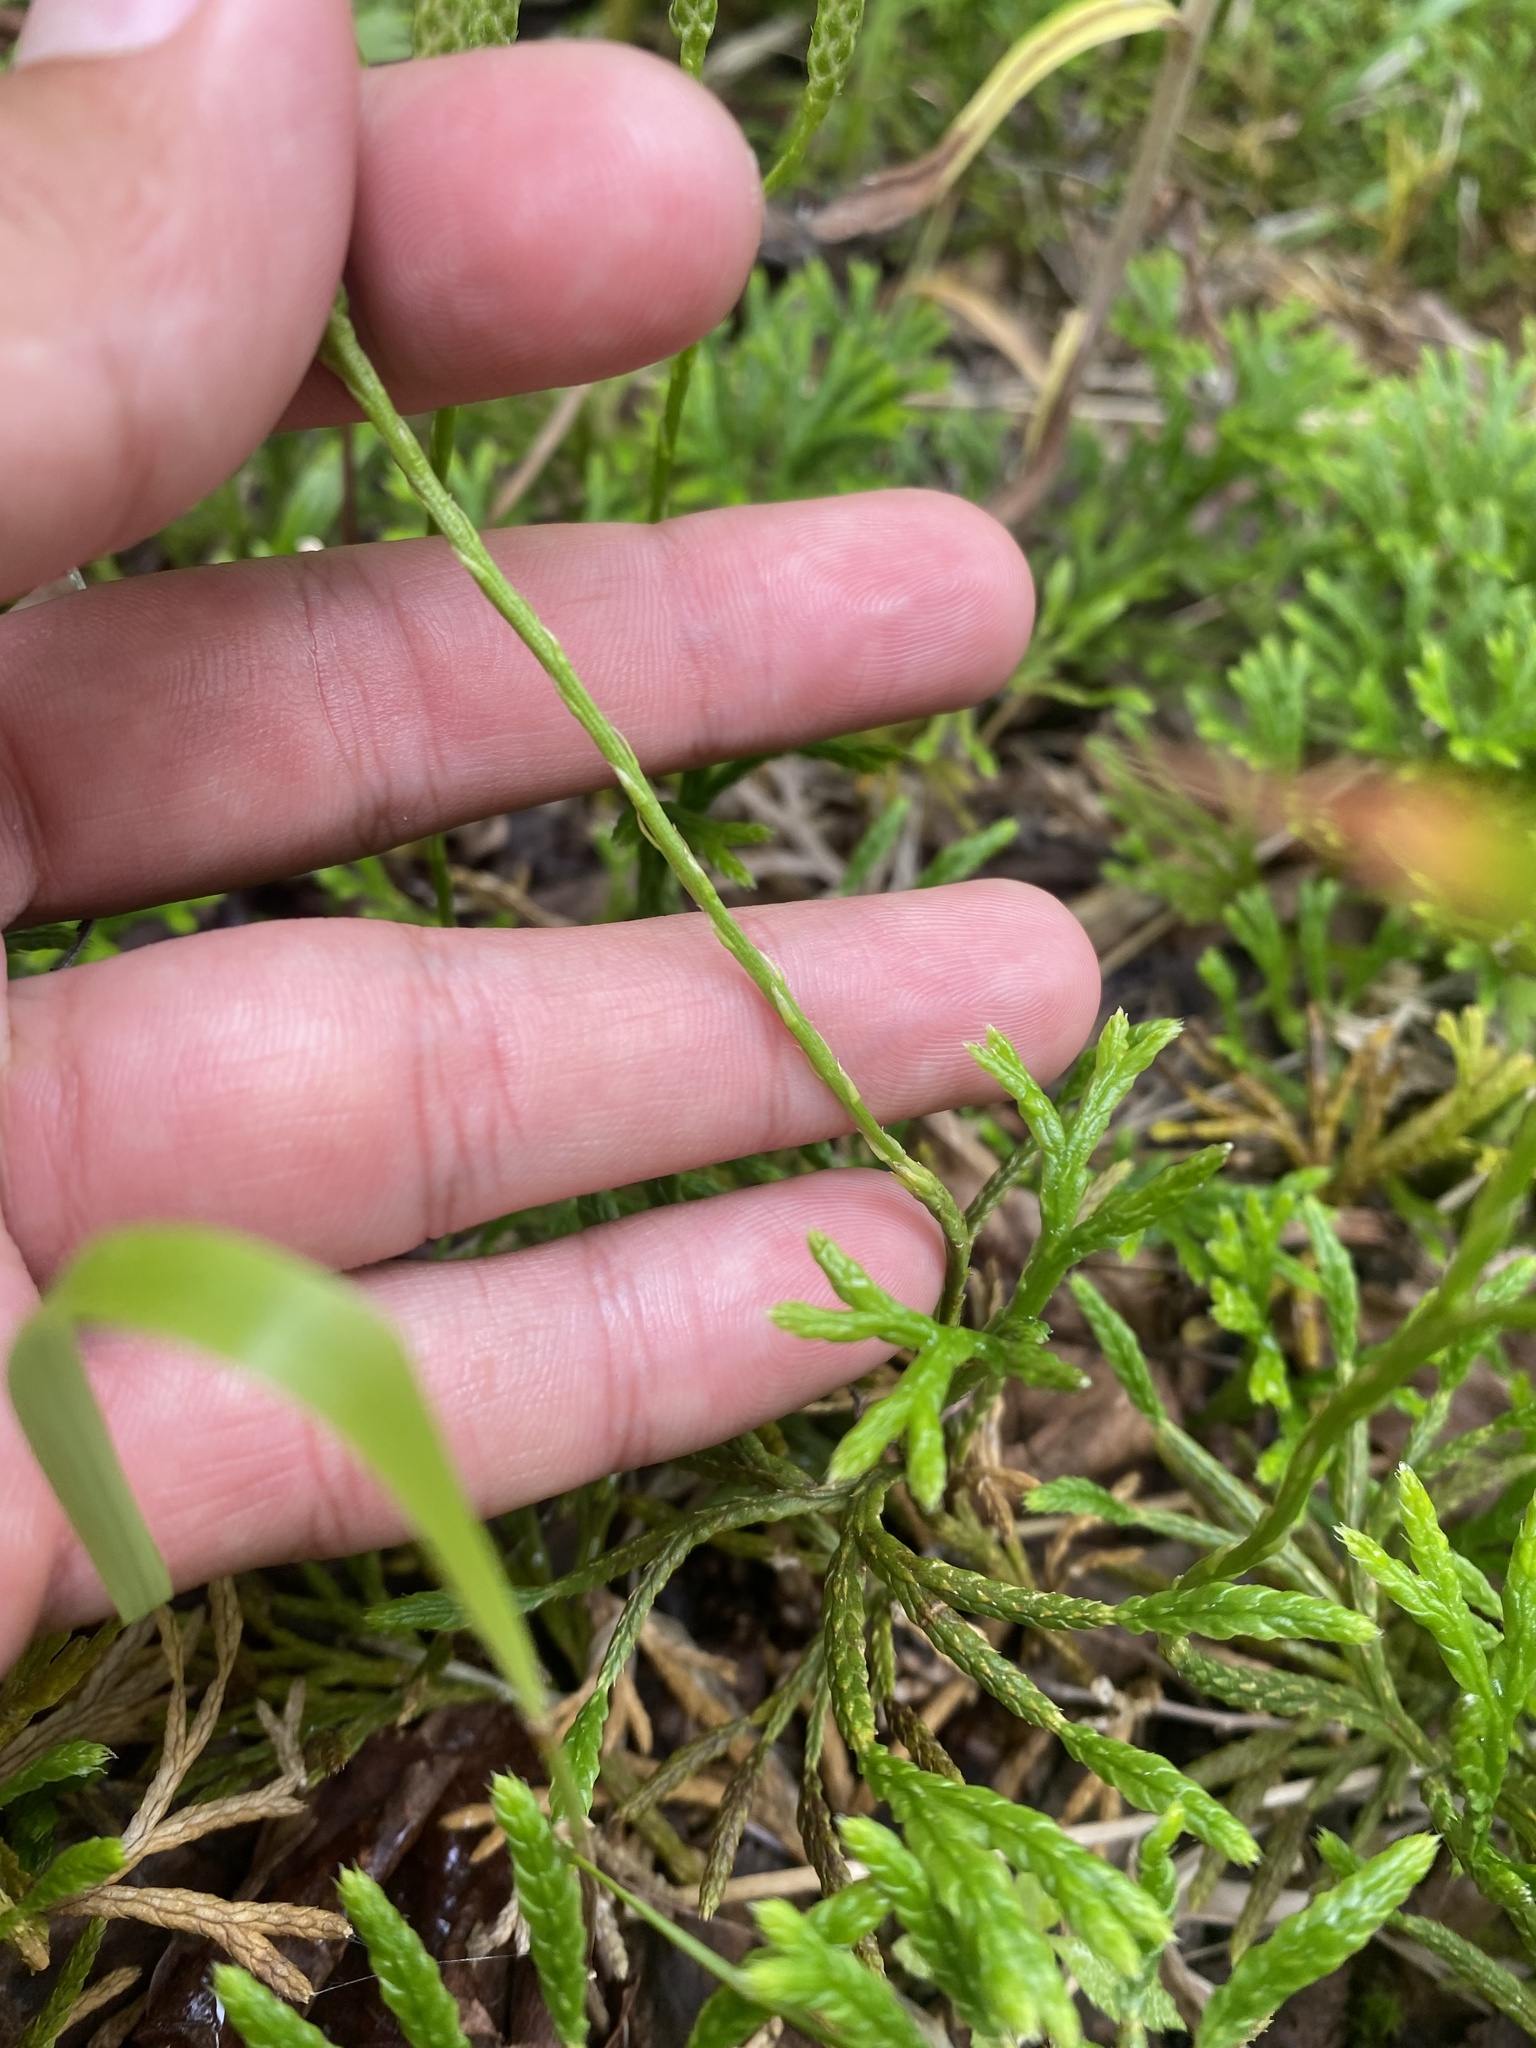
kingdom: Plantae
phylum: Tracheophyta
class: Lycopodiopsida
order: Lycopodiales
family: Lycopodiaceae
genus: Diphasiastrum
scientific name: Diphasiastrum complanatum
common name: Northern running-pine
